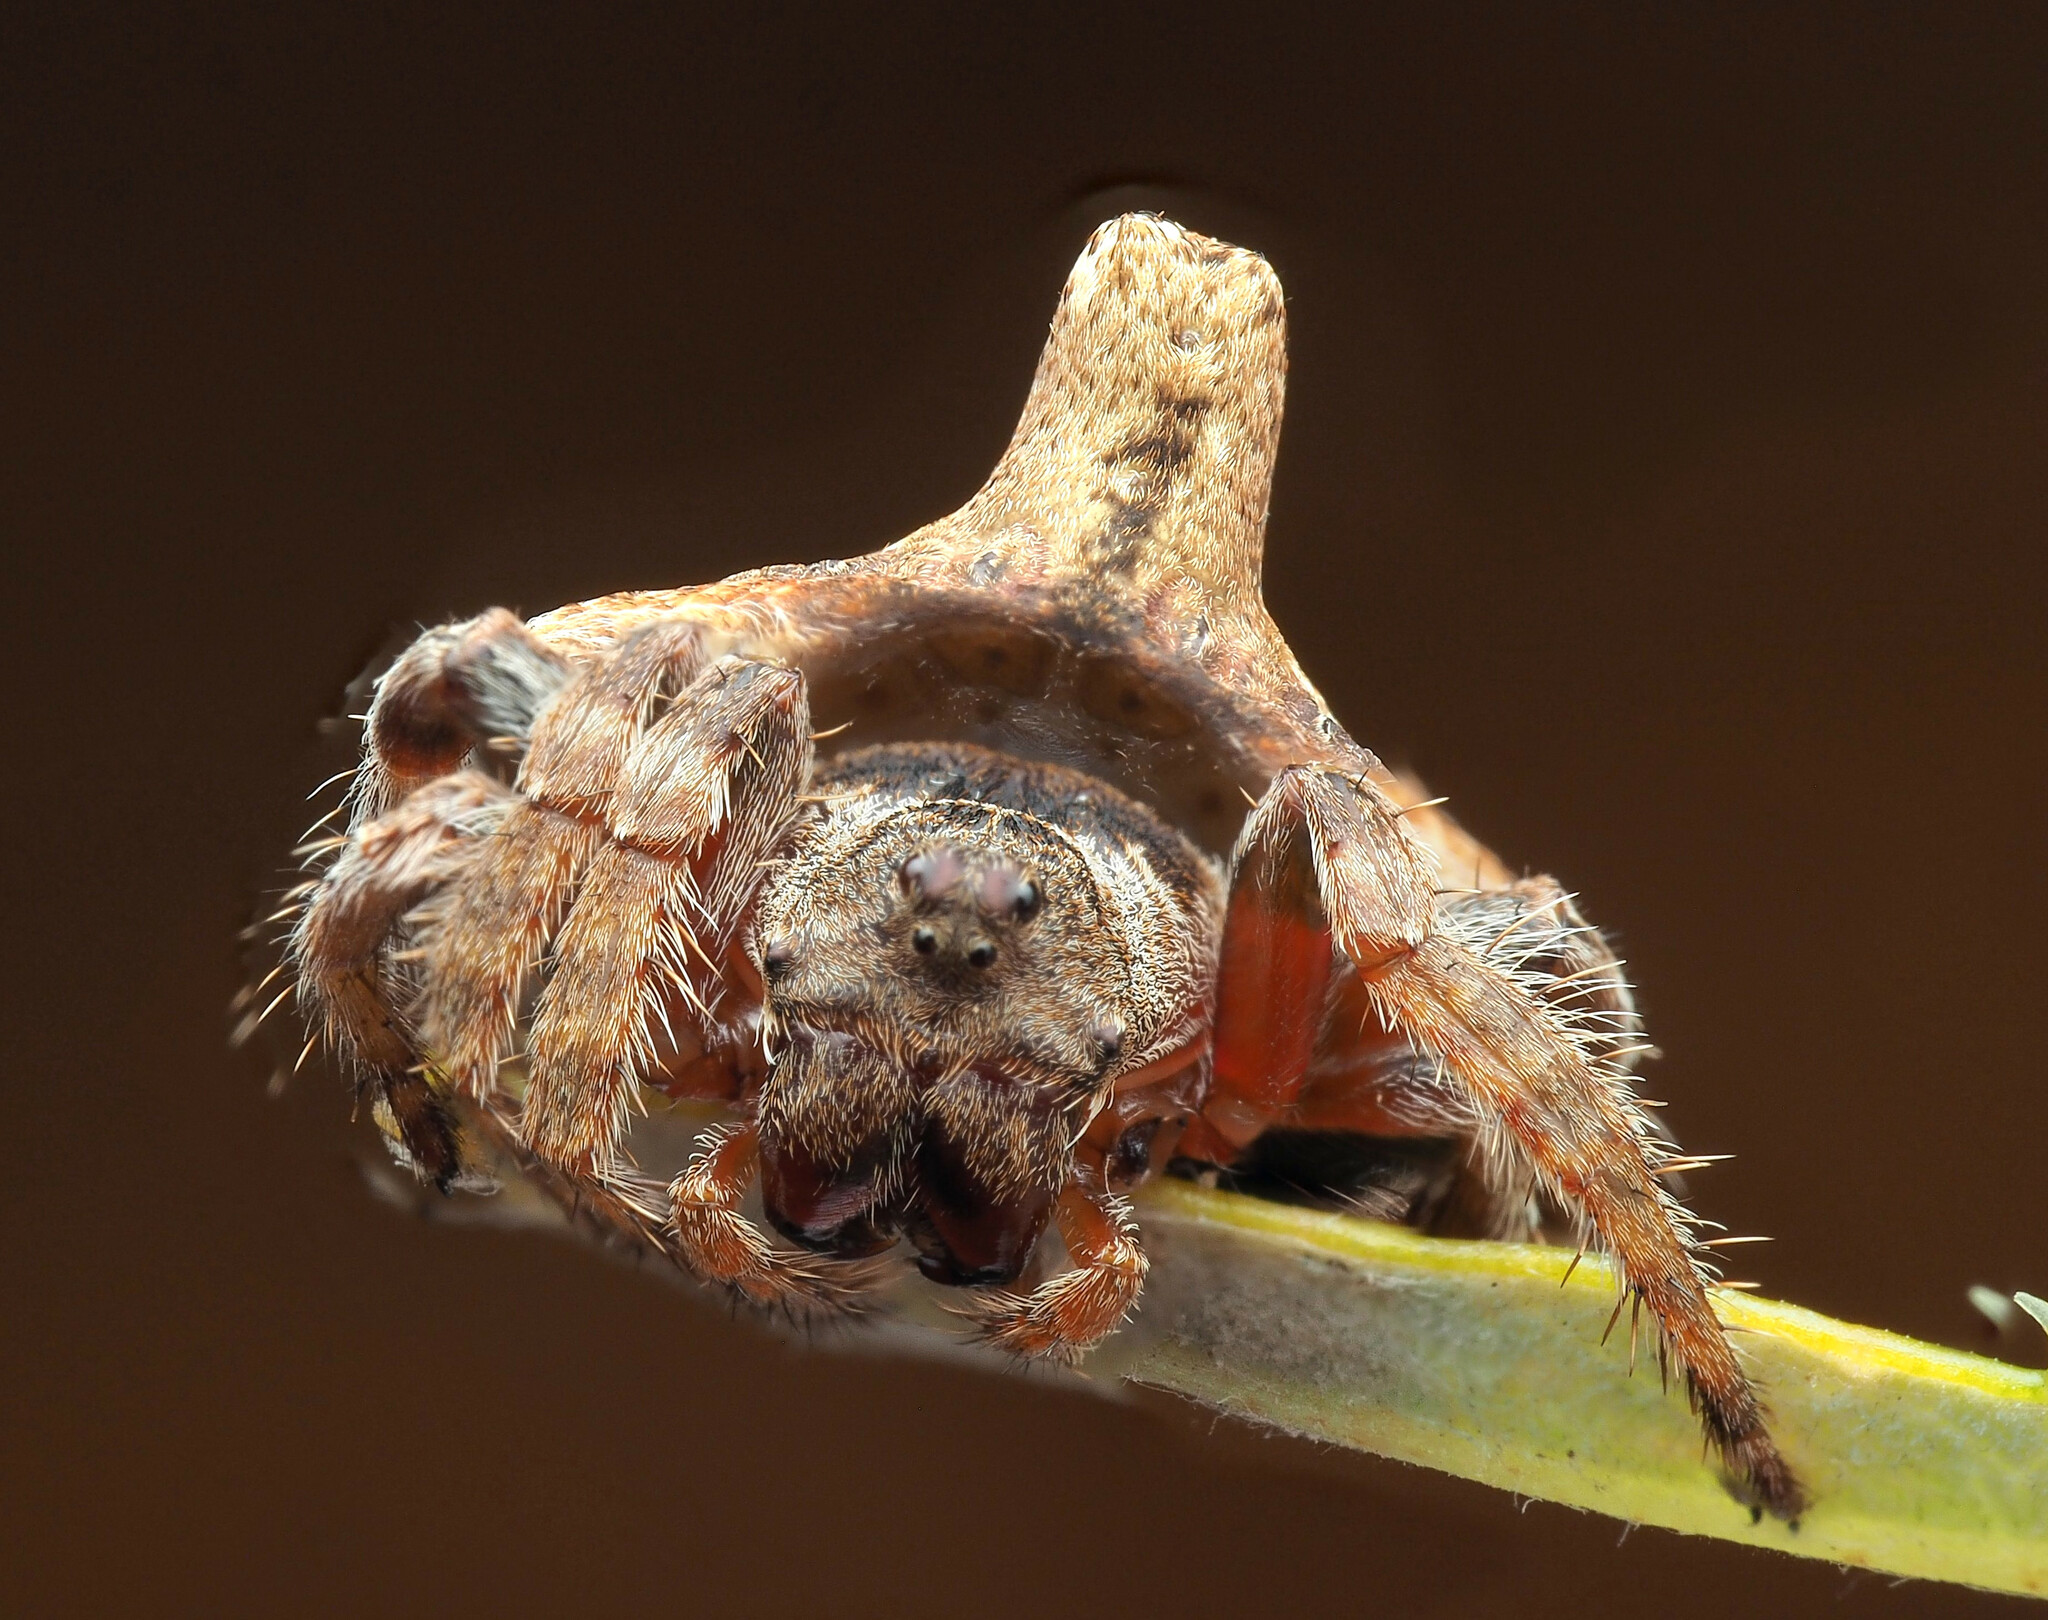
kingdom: Animalia
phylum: Arthropoda
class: Arachnida
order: Araneae
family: Araneidae
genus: Dolophones
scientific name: Dolophones
